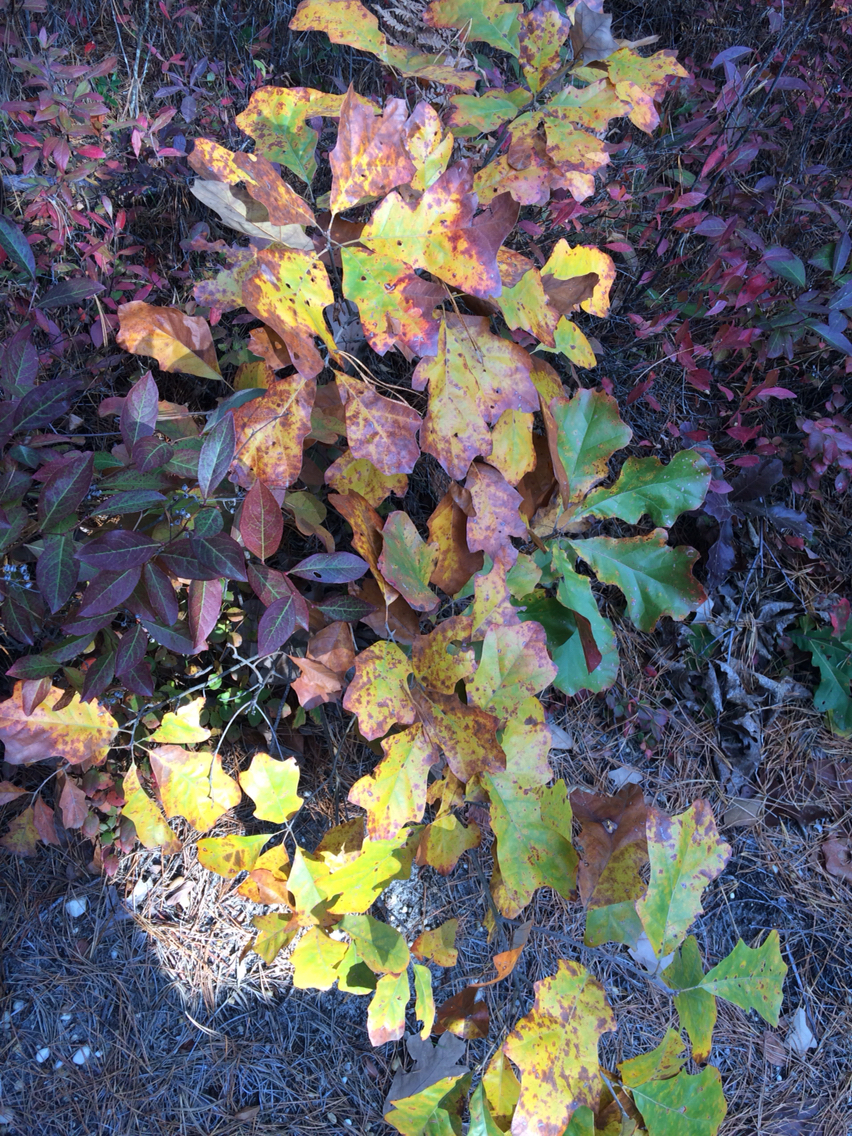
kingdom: Plantae
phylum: Tracheophyta
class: Magnoliopsida
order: Fagales
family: Fagaceae
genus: Quercus
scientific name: Quercus ilicifolia
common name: Bear oak
